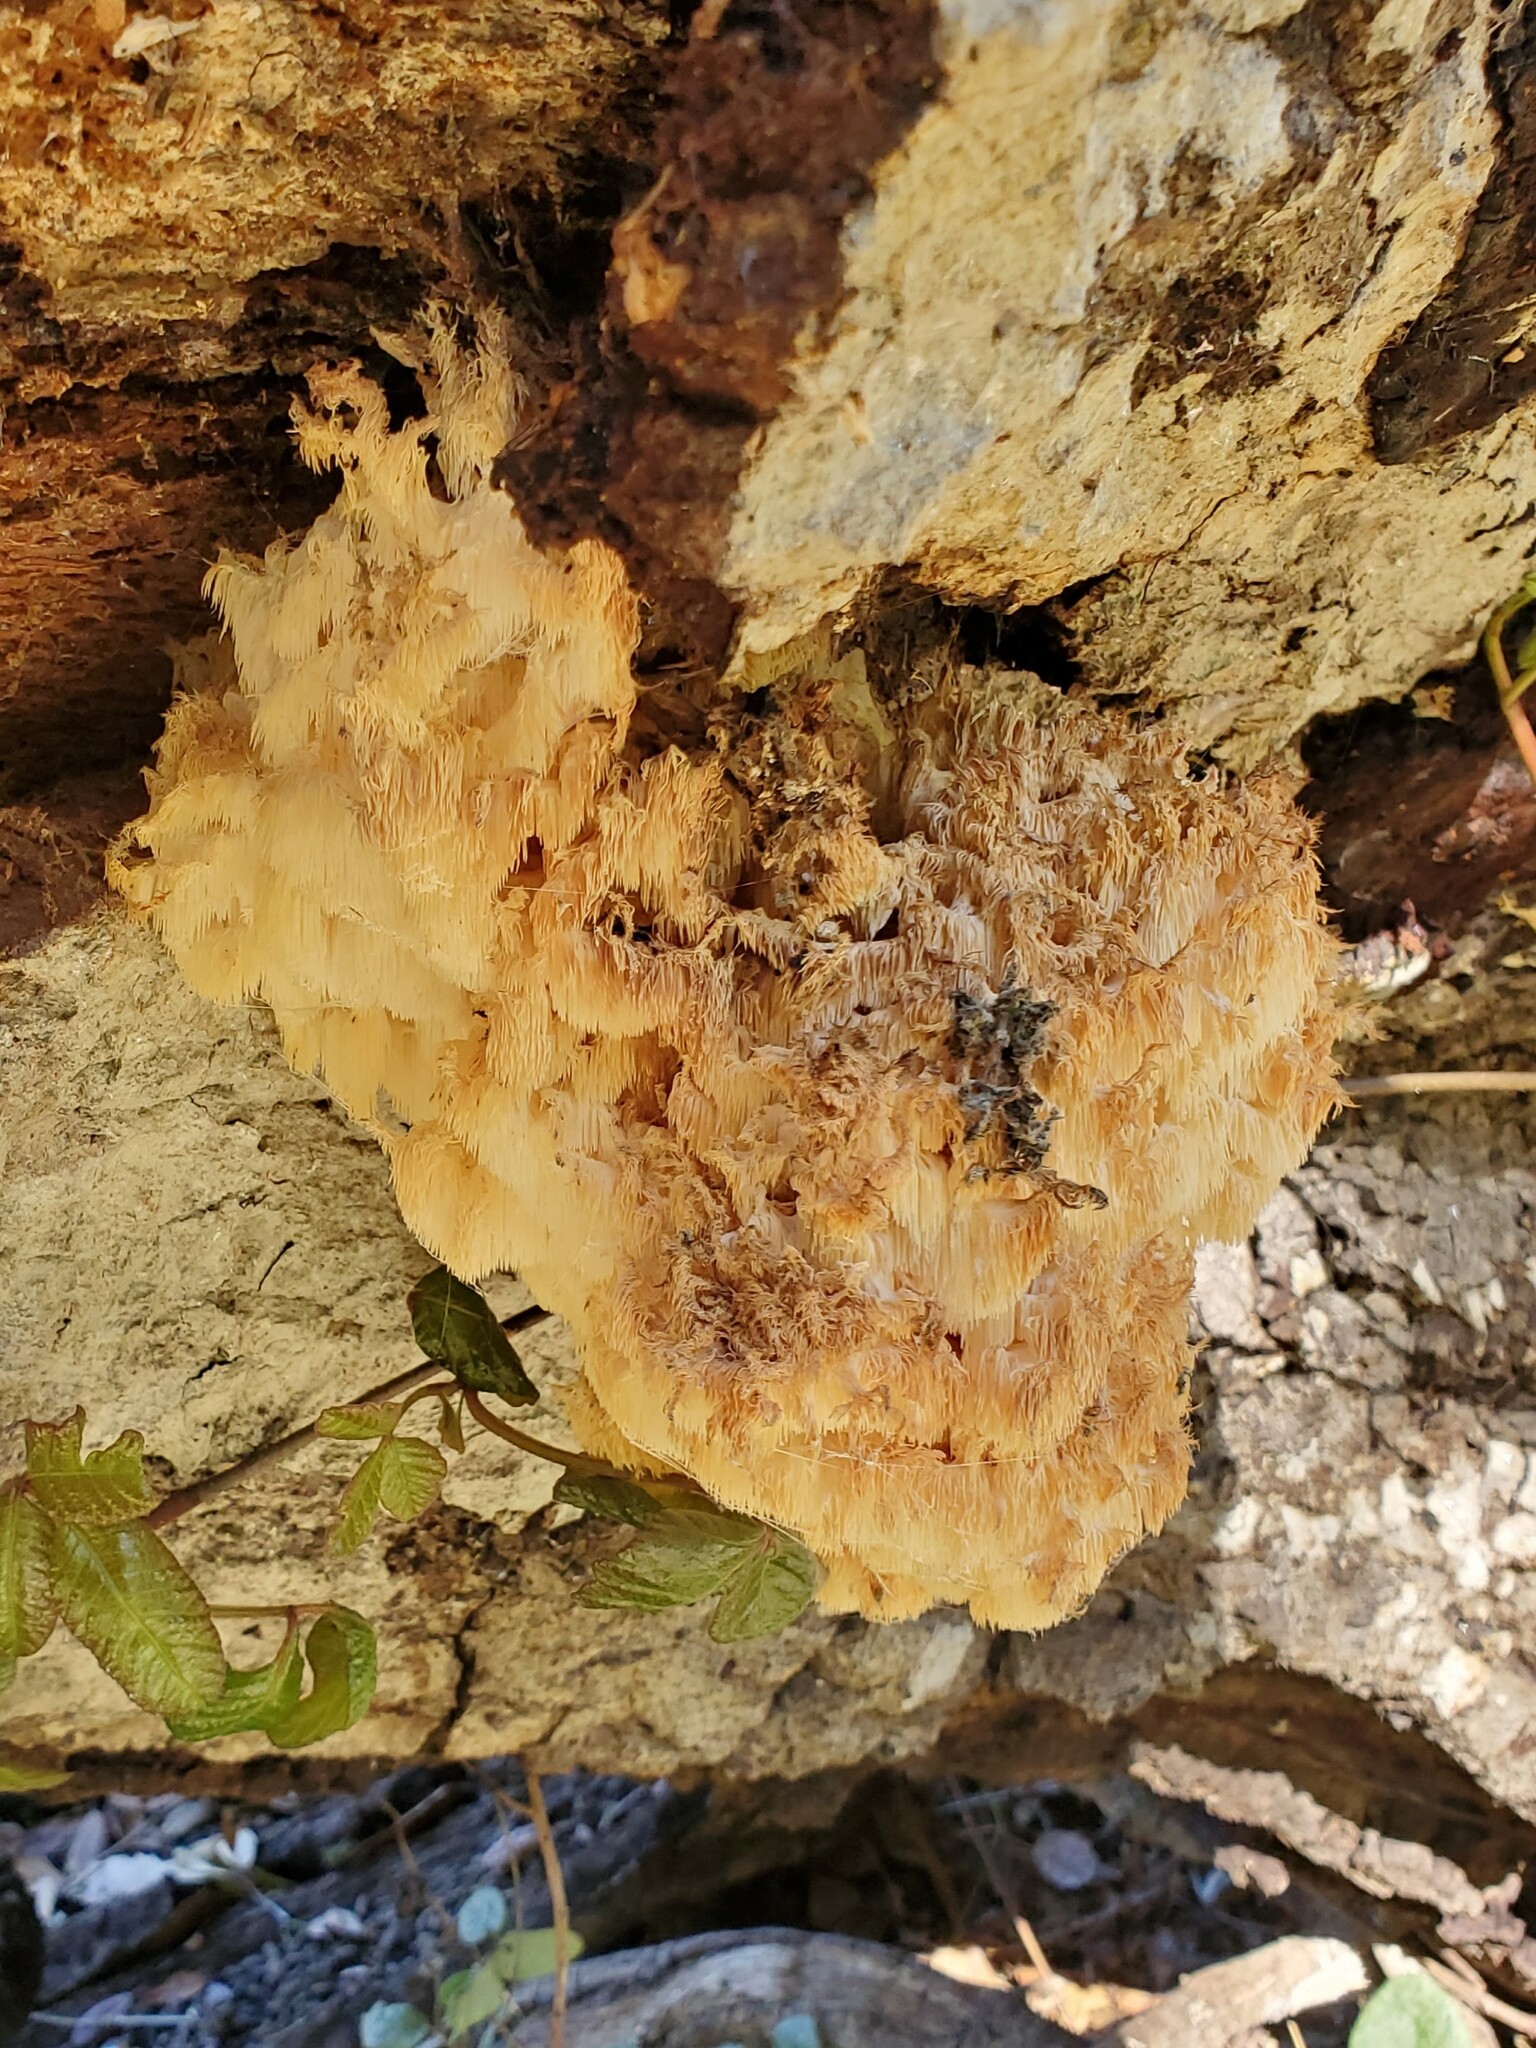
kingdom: Fungi
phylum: Basidiomycota
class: Agaricomycetes
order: Russulales
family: Hericiaceae
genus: Hericium
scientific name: Hericium coralloides
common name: Coral tooth
